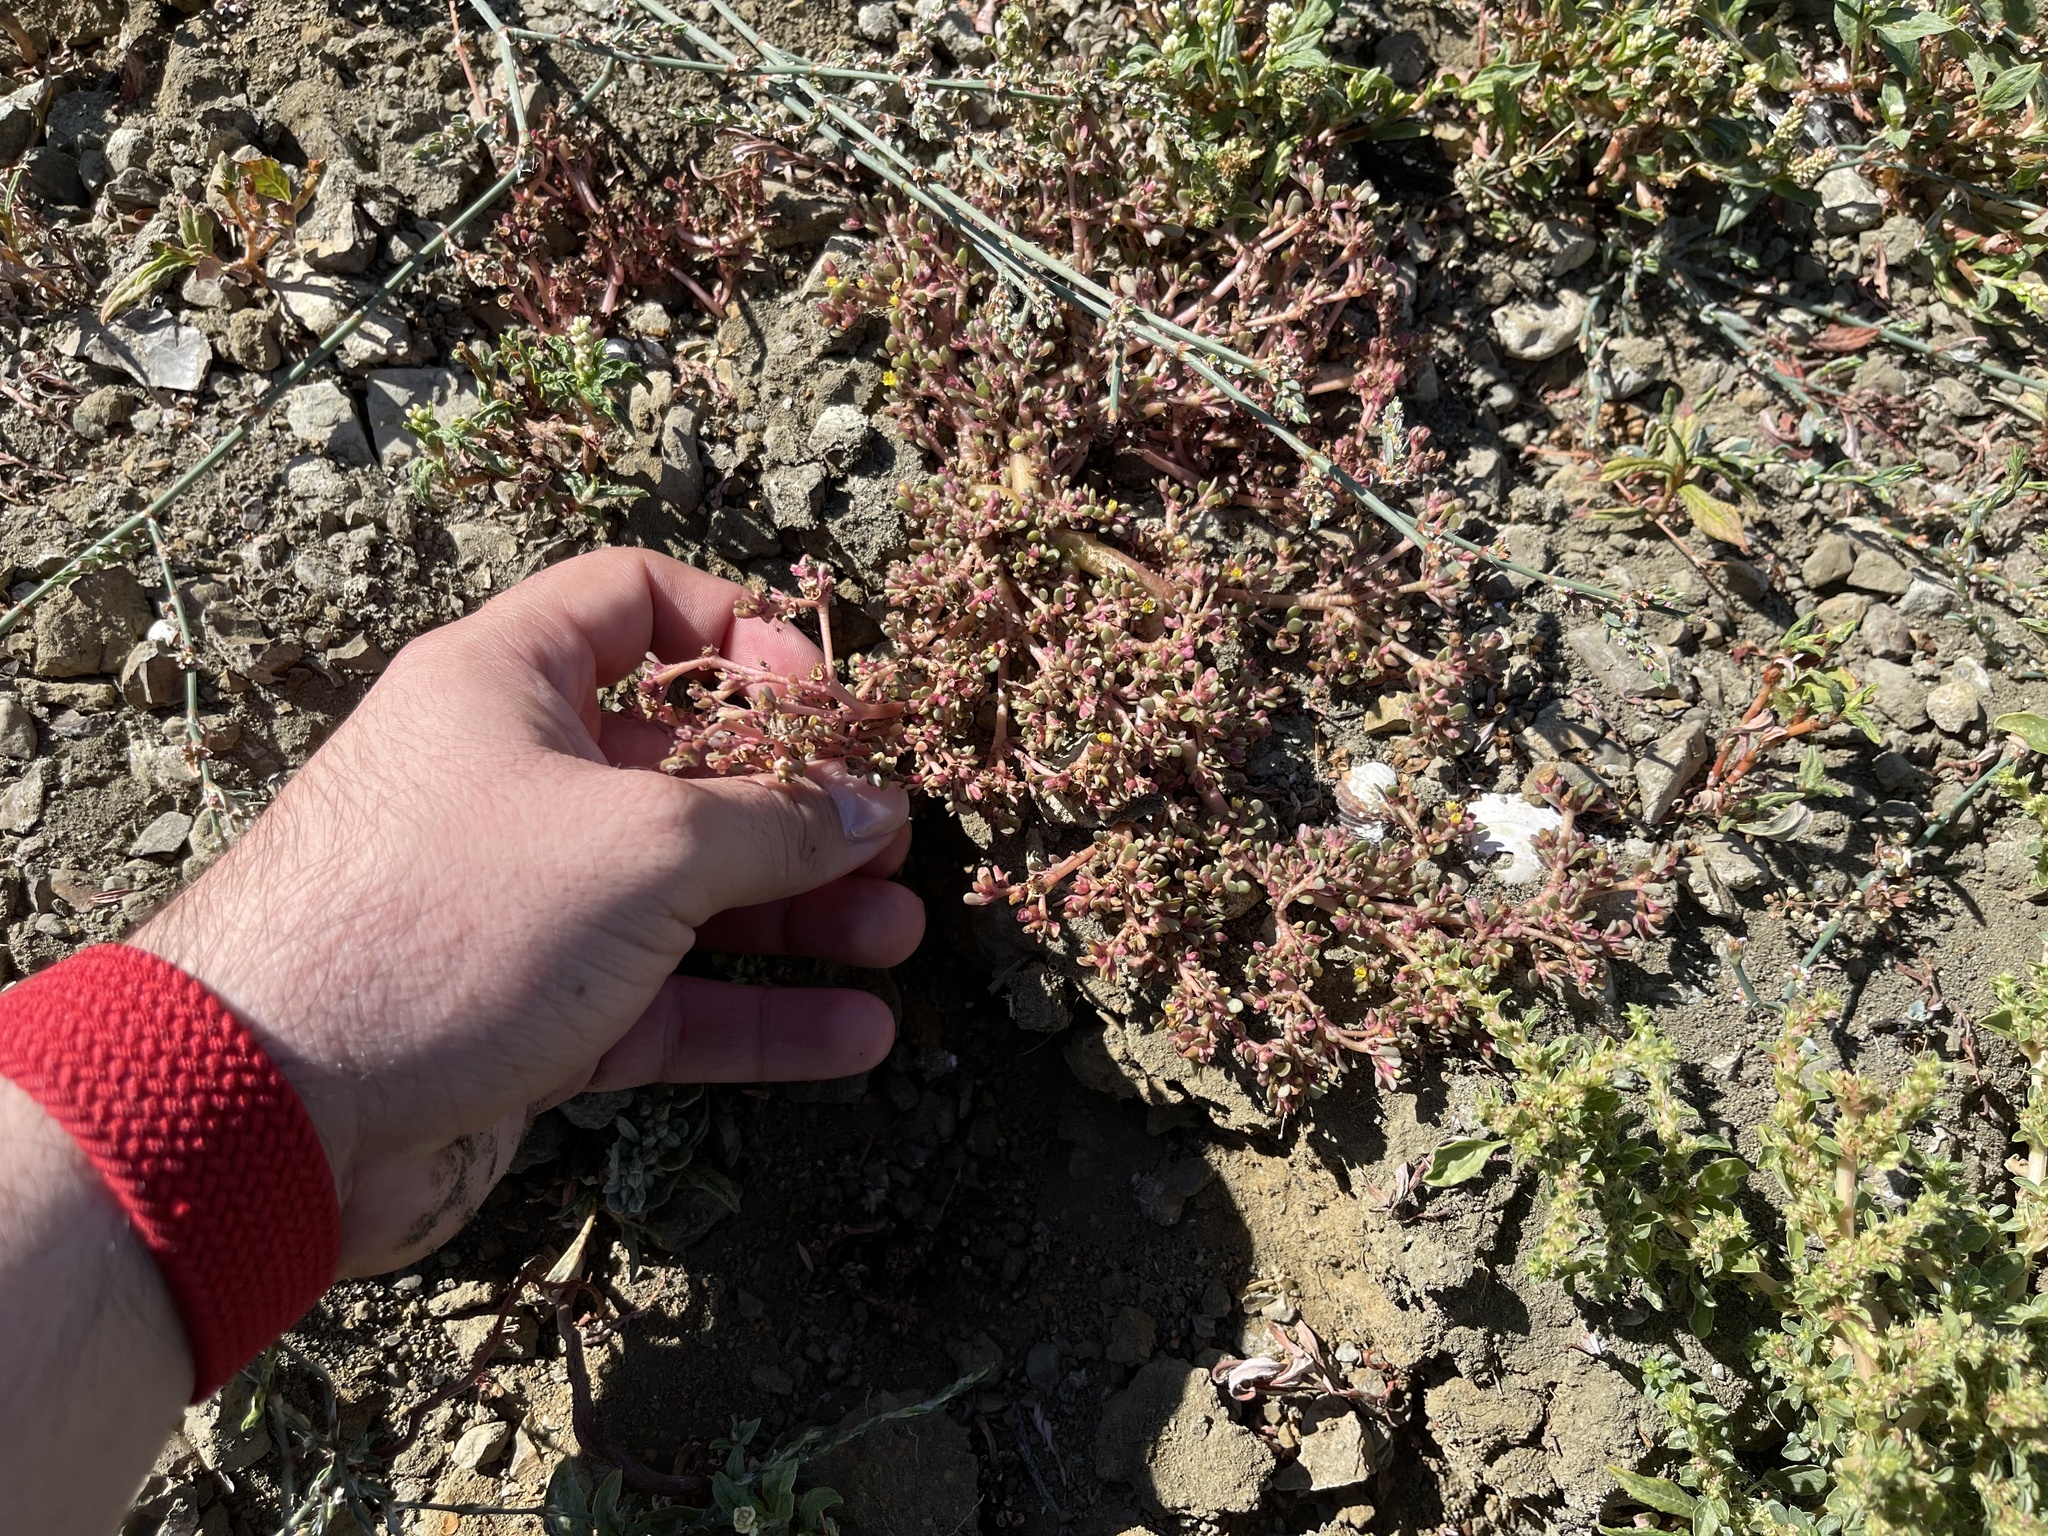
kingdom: Plantae
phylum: Tracheophyta
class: Magnoliopsida
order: Caryophyllales
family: Portulacaceae
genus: Portulaca
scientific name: Portulaca oleracea
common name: Common purslane
